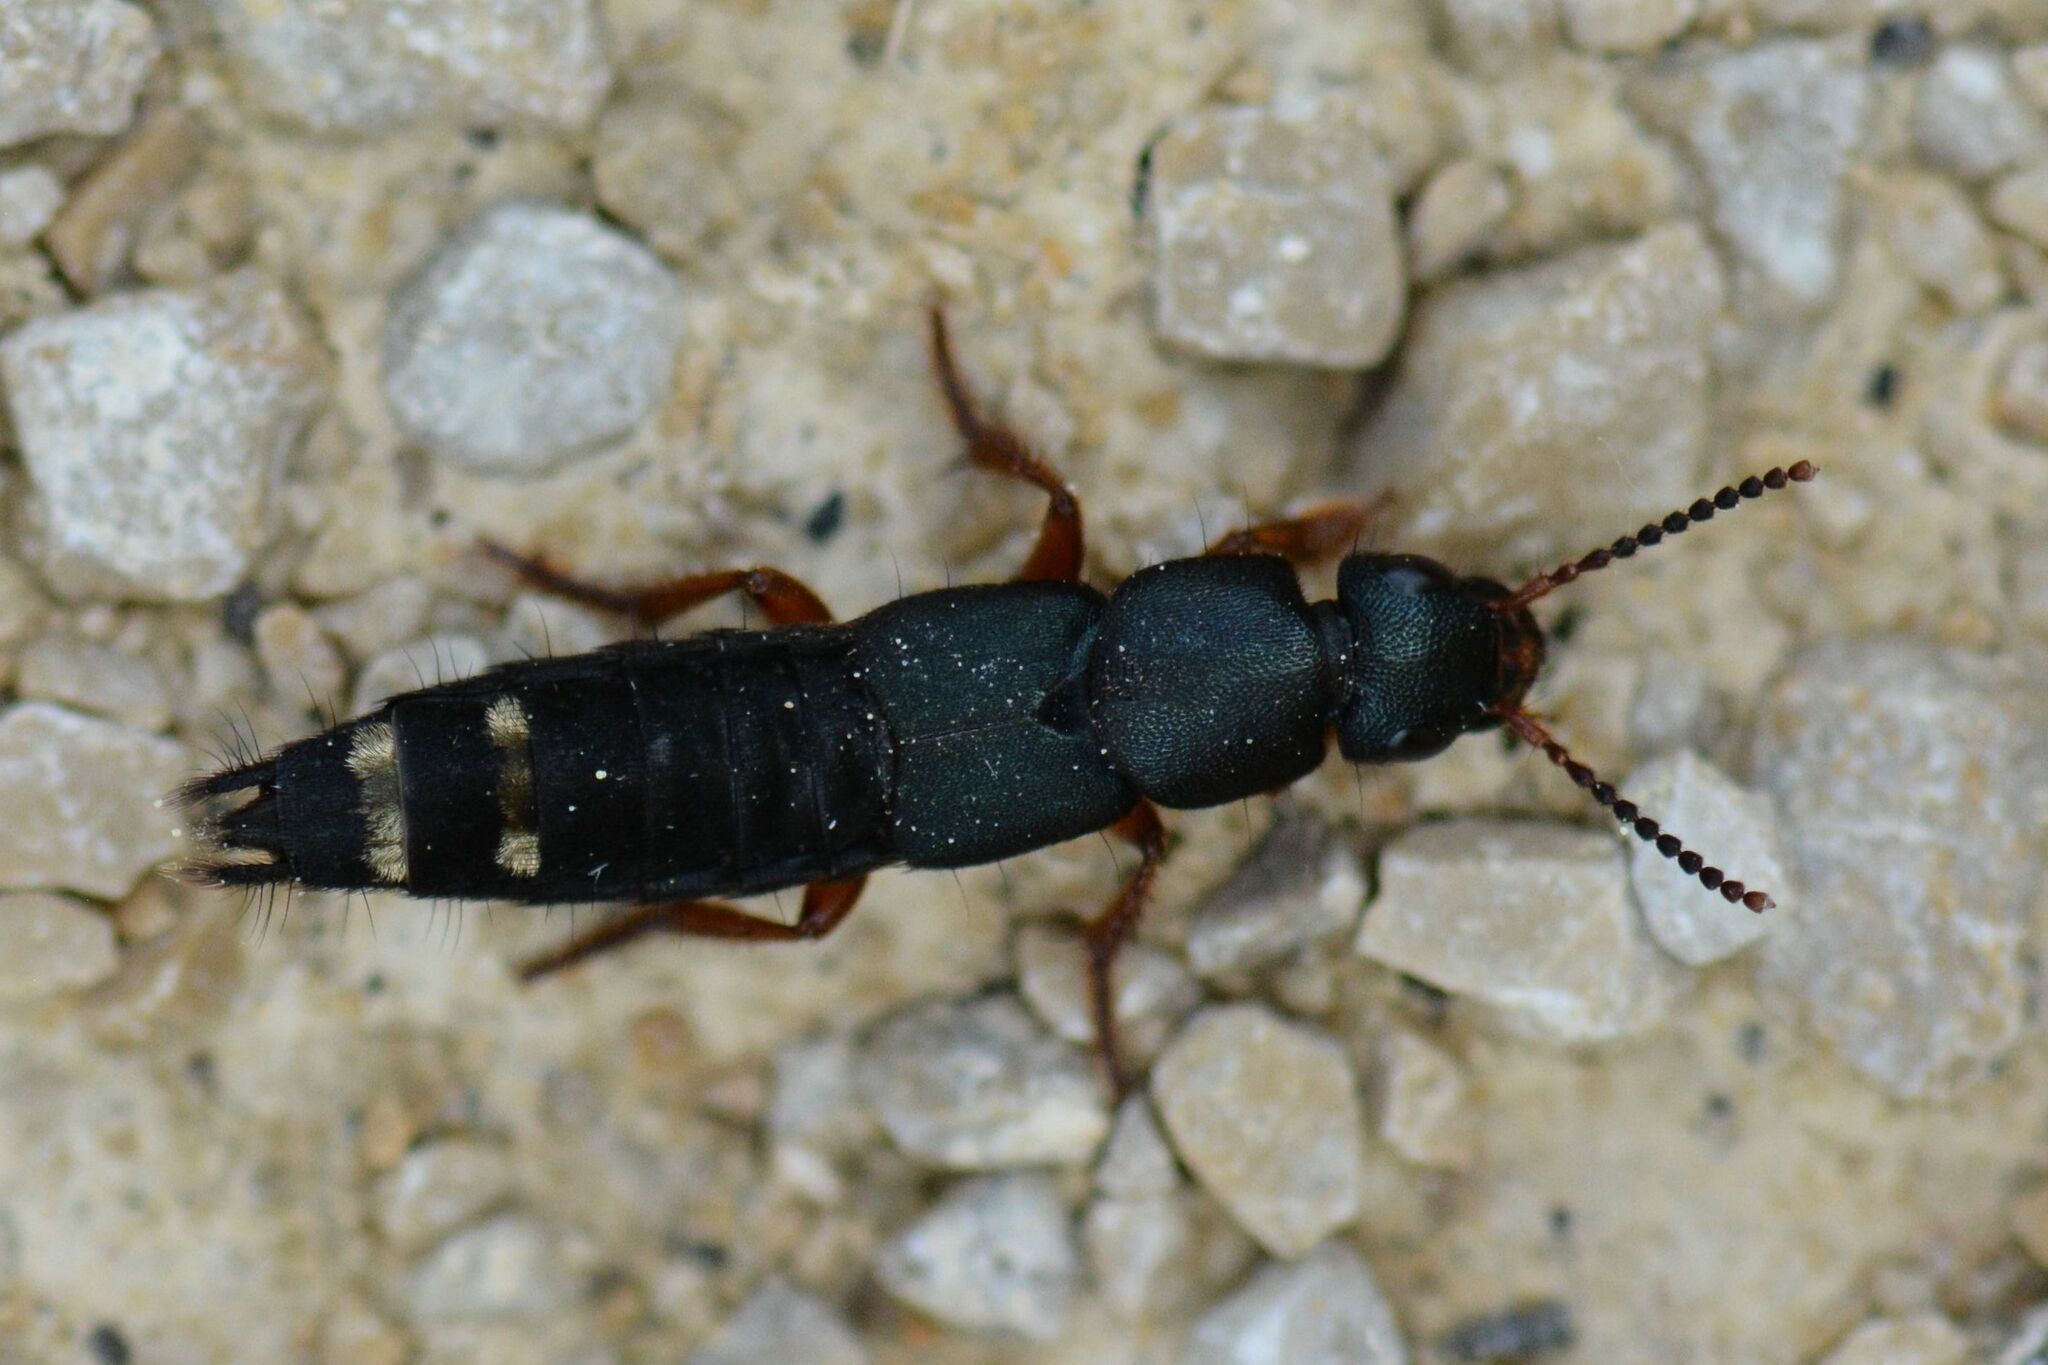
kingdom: Animalia
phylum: Arthropoda
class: Insecta
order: Coleoptera
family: Staphylinidae
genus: Platydracus
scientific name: Platydracus fulvipes
